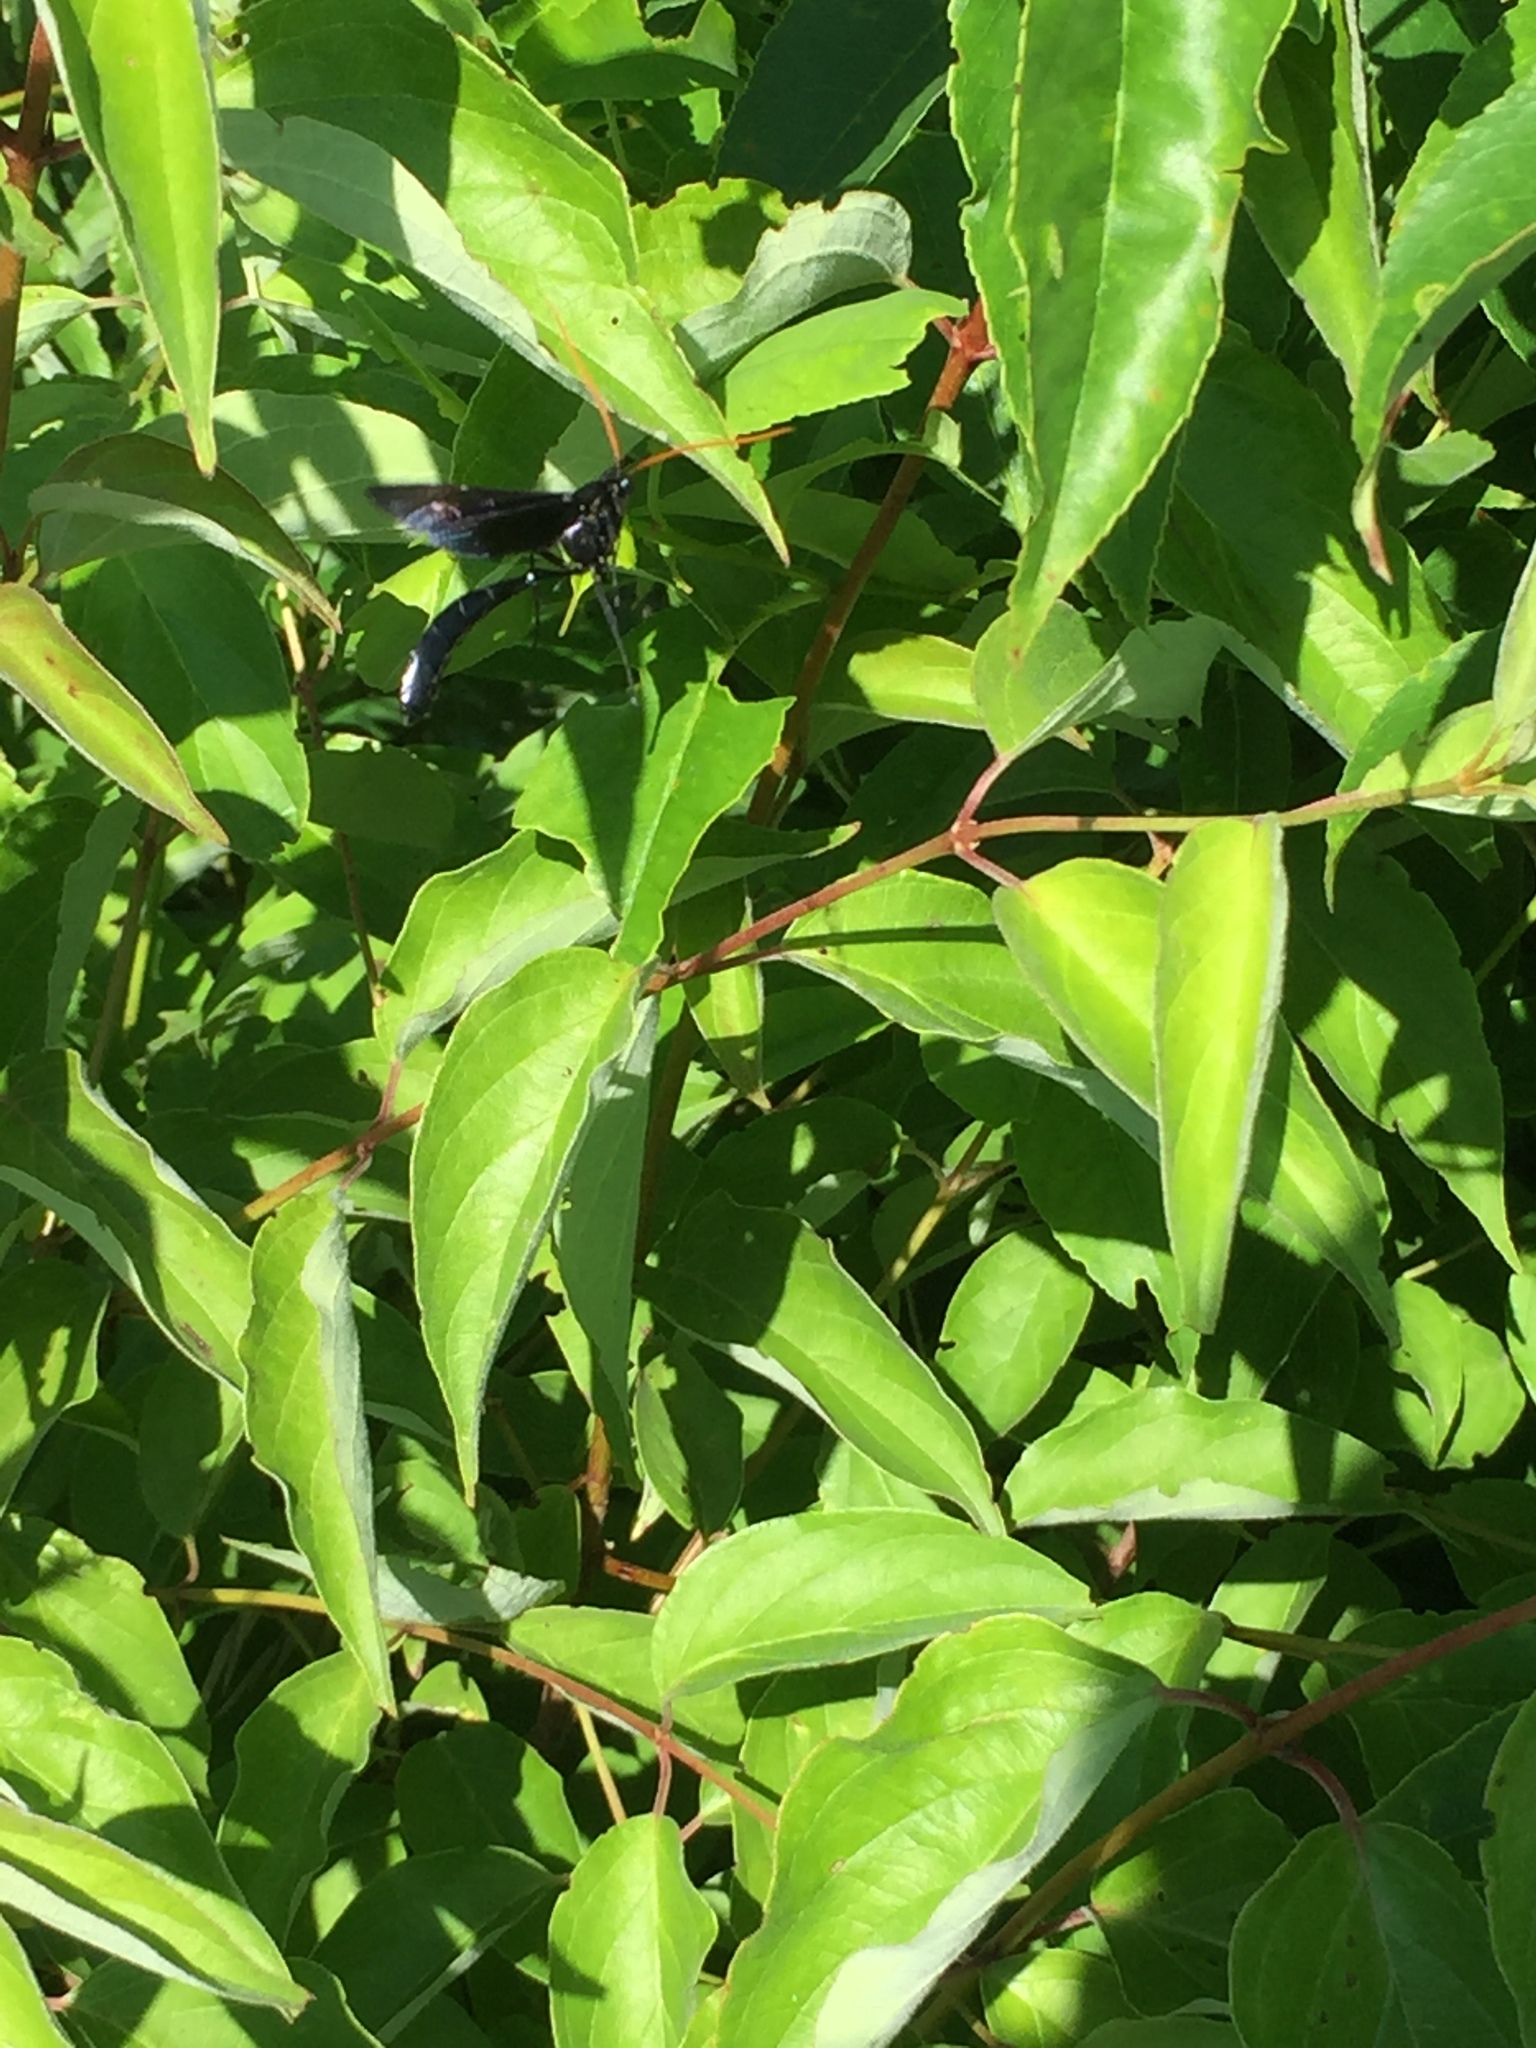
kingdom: Animalia
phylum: Arthropoda
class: Insecta
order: Hymenoptera
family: Ichneumonidae
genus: Thyreodon
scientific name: Thyreodon atricolor
